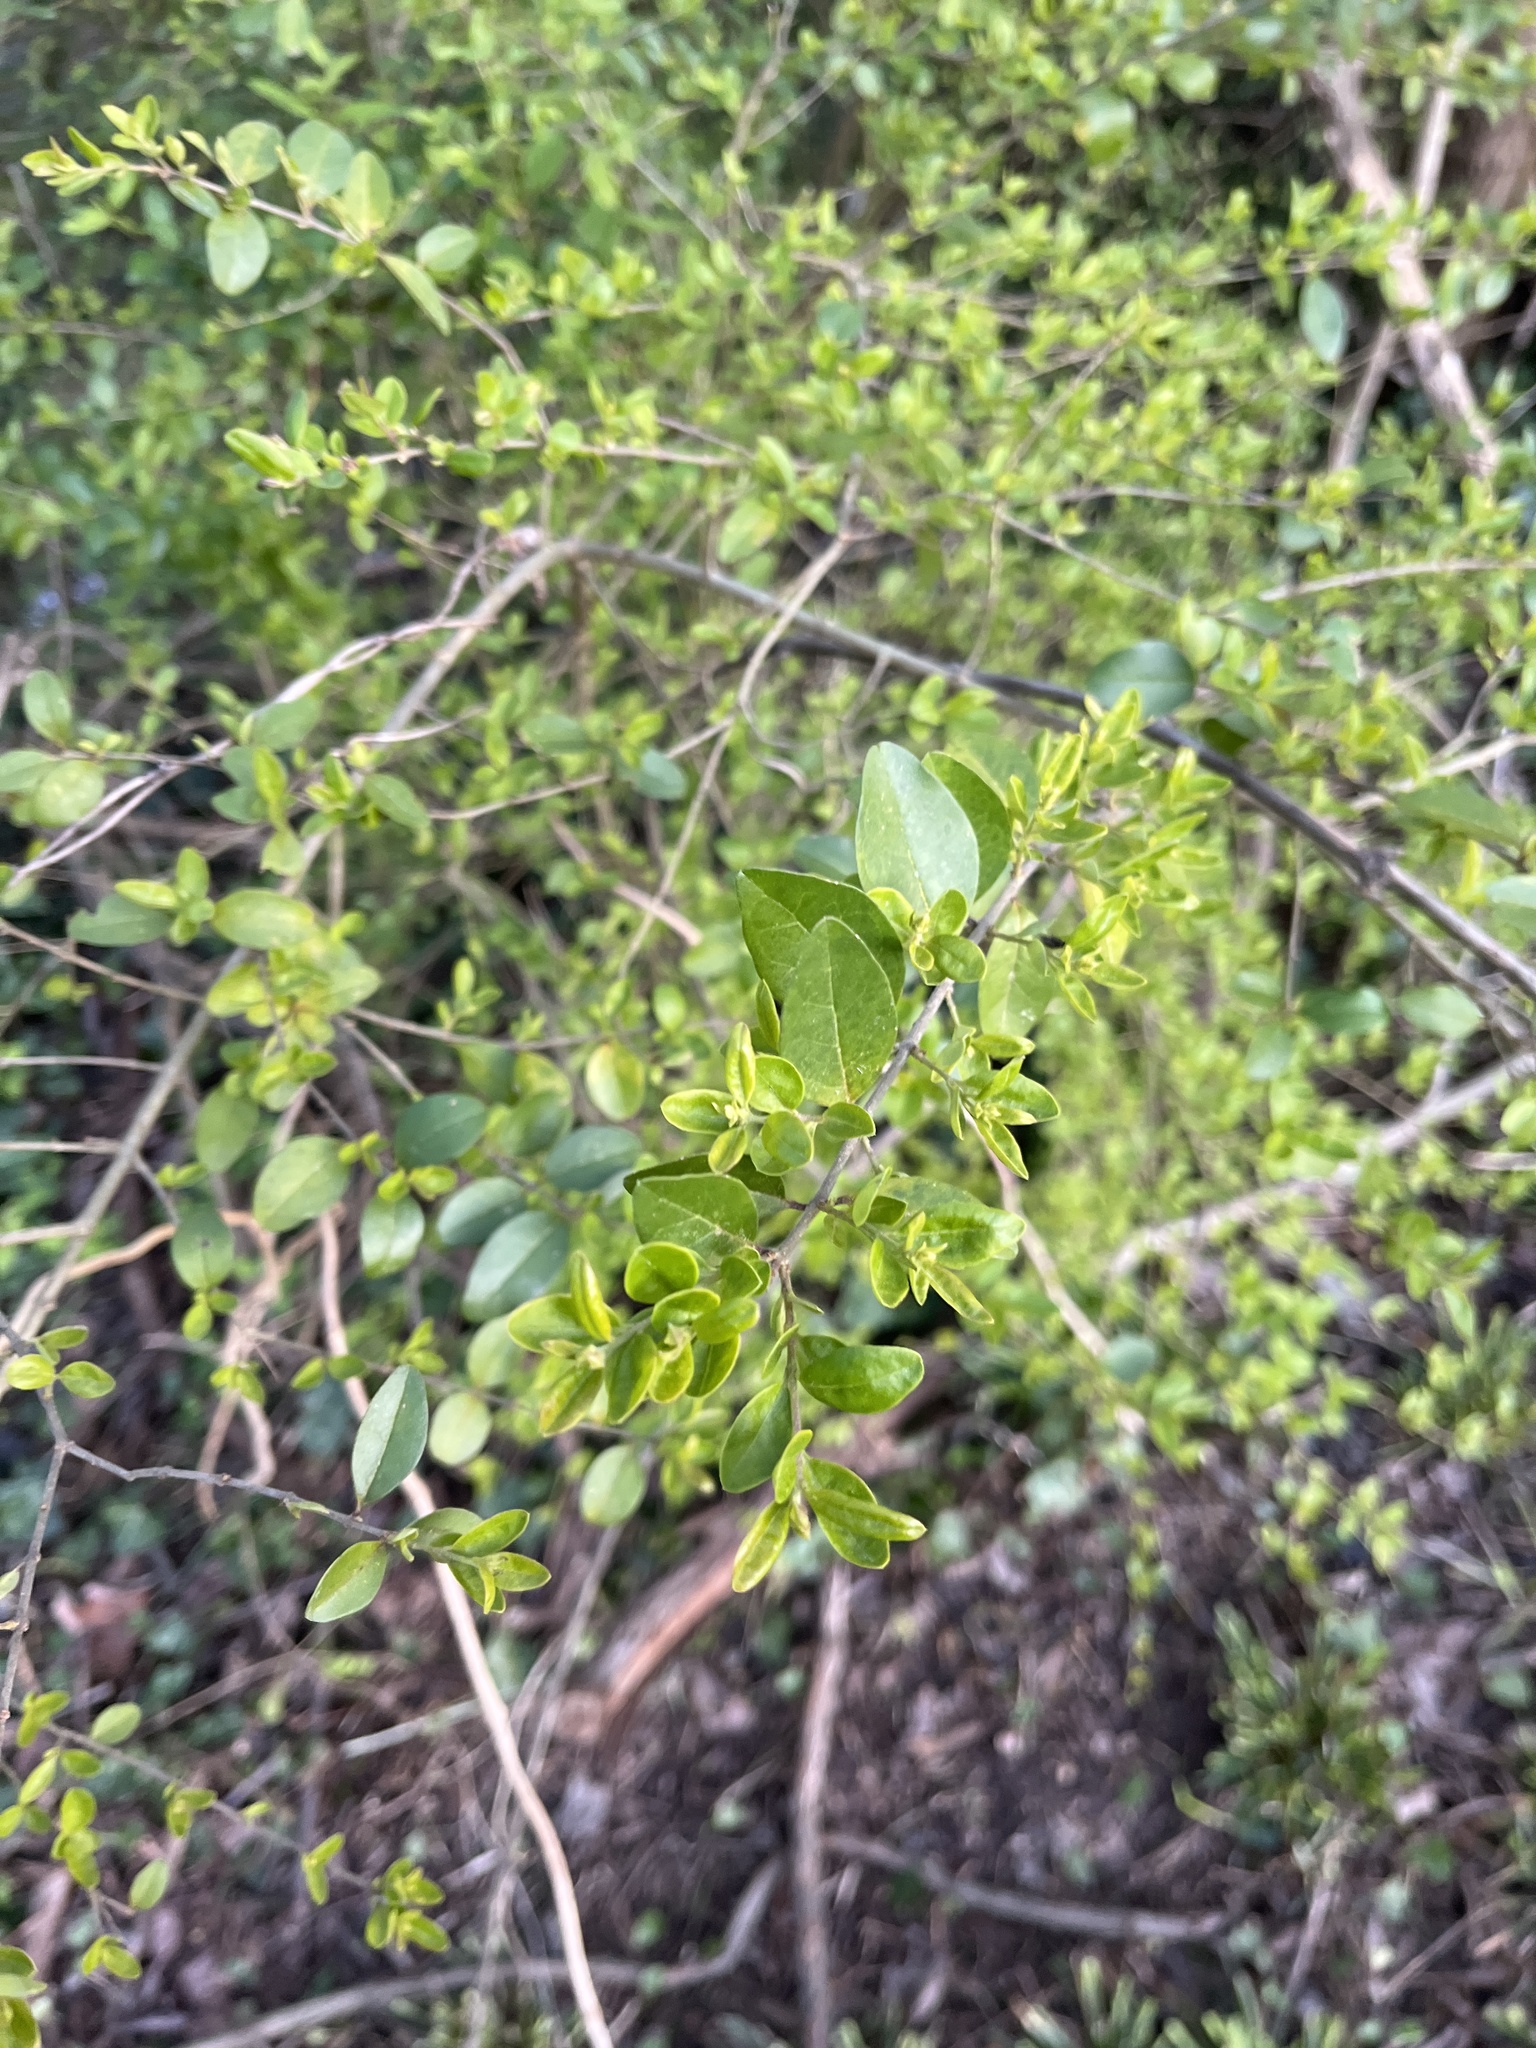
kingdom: Plantae
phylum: Tracheophyta
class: Magnoliopsida
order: Lamiales
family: Oleaceae
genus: Ligustrum
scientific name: Ligustrum sinense
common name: Chinese privet
